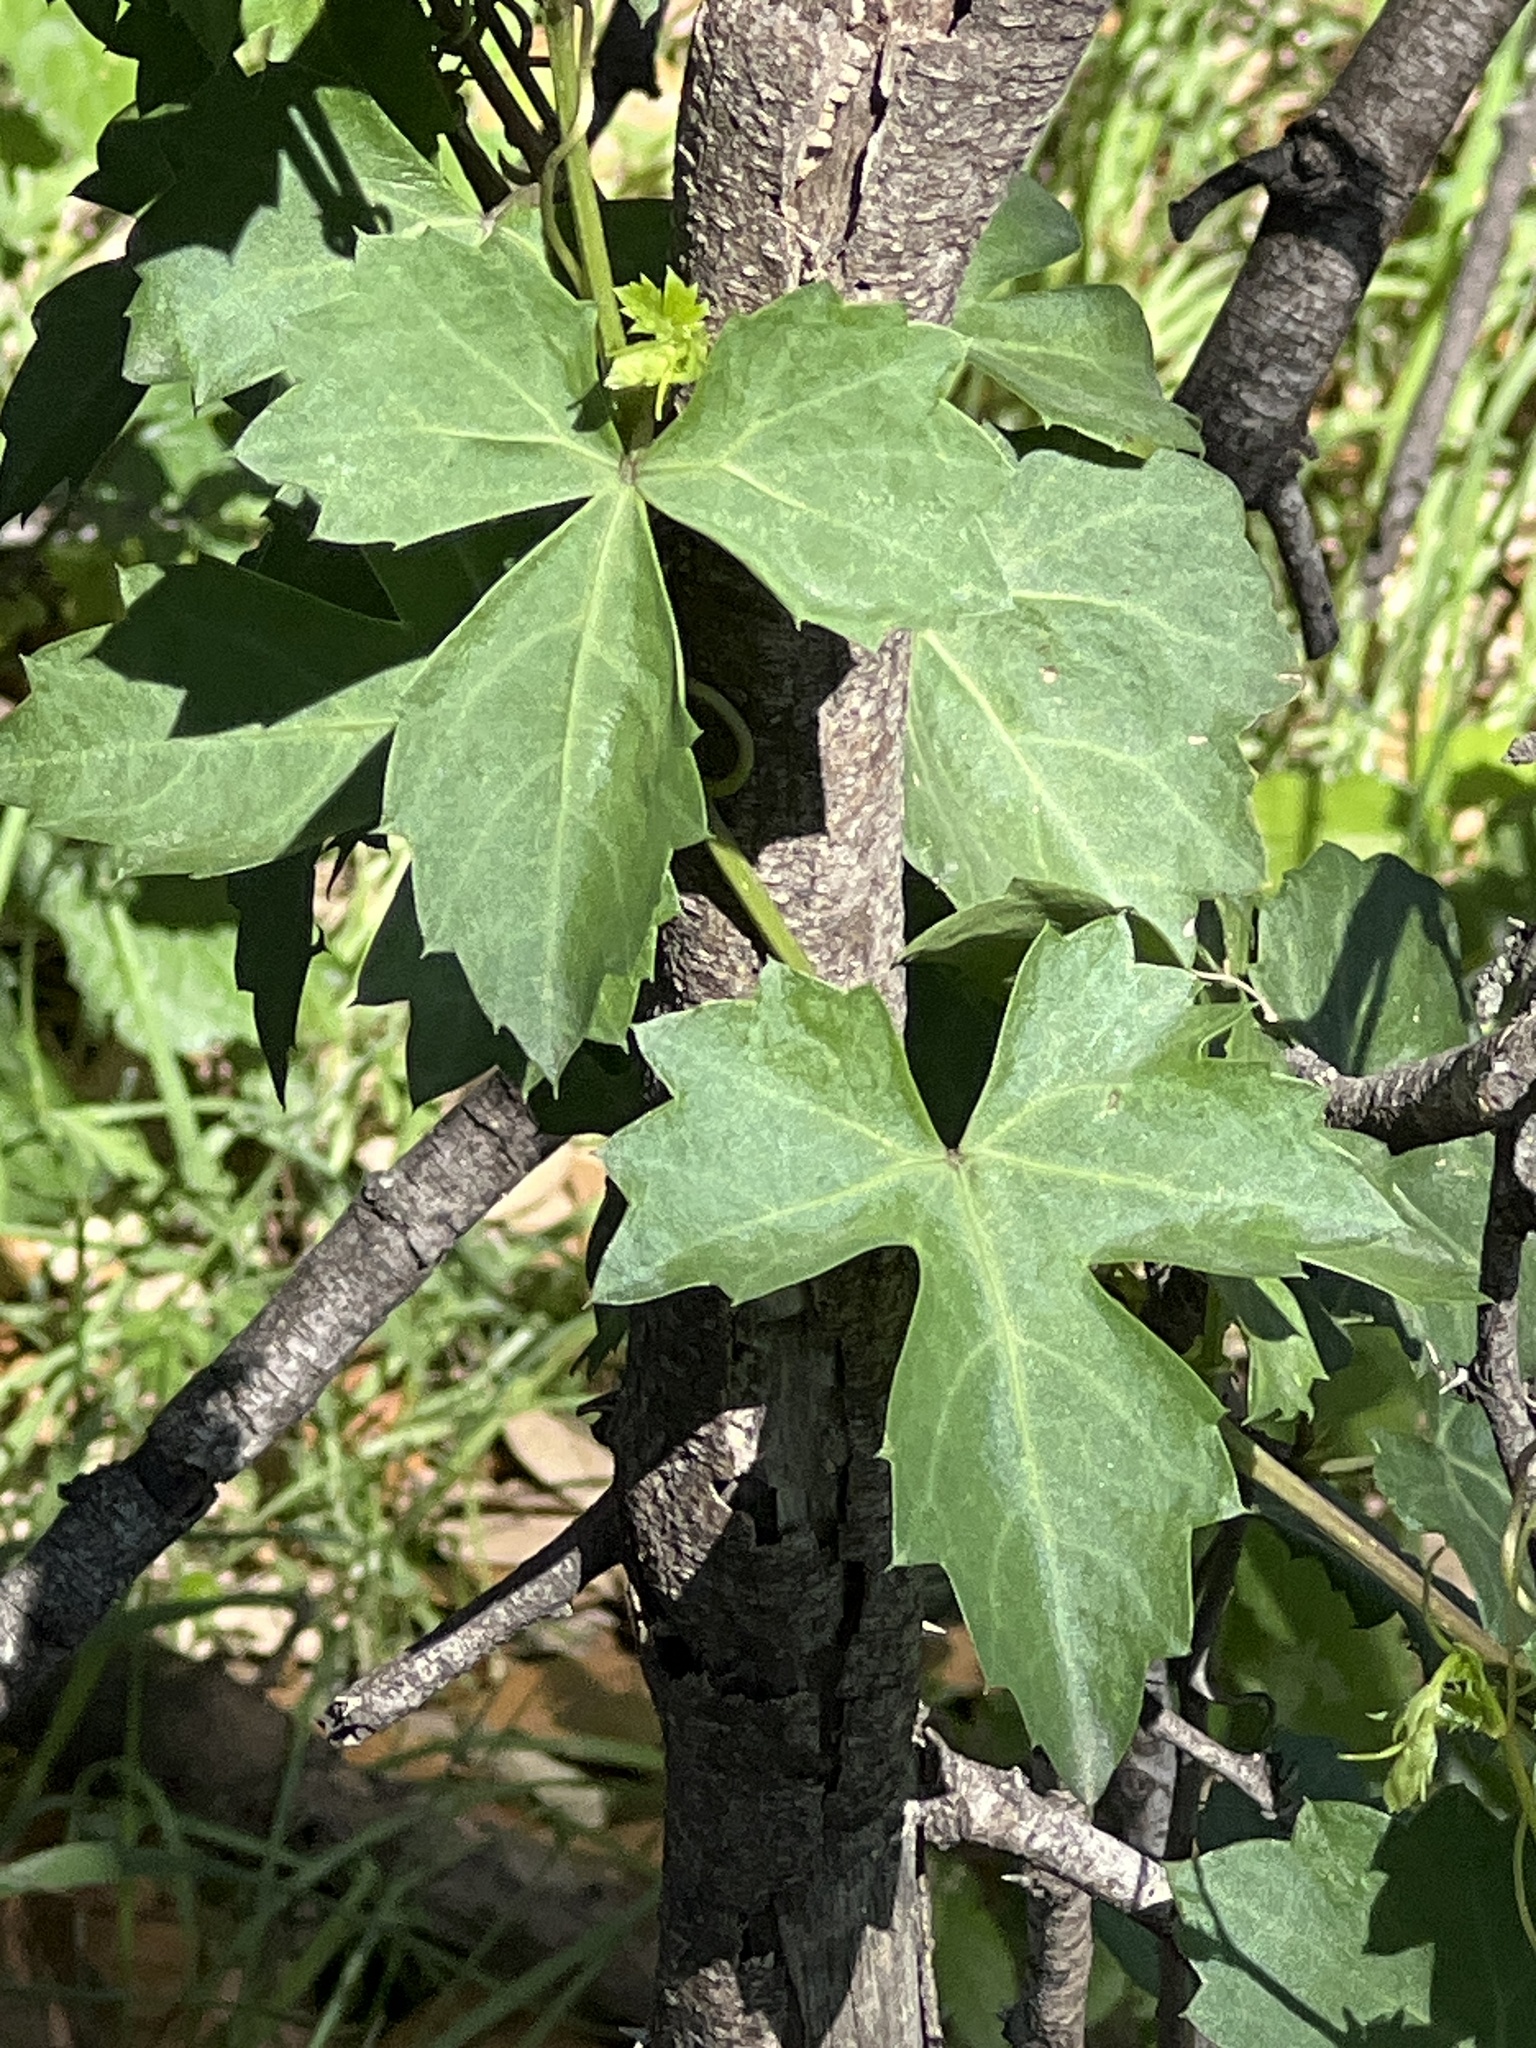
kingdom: Plantae
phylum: Tracheophyta
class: Magnoliopsida
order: Vitales
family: Vitaceae
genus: Cissus
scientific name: Cissus trifoliata
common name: Vine-sorrel
